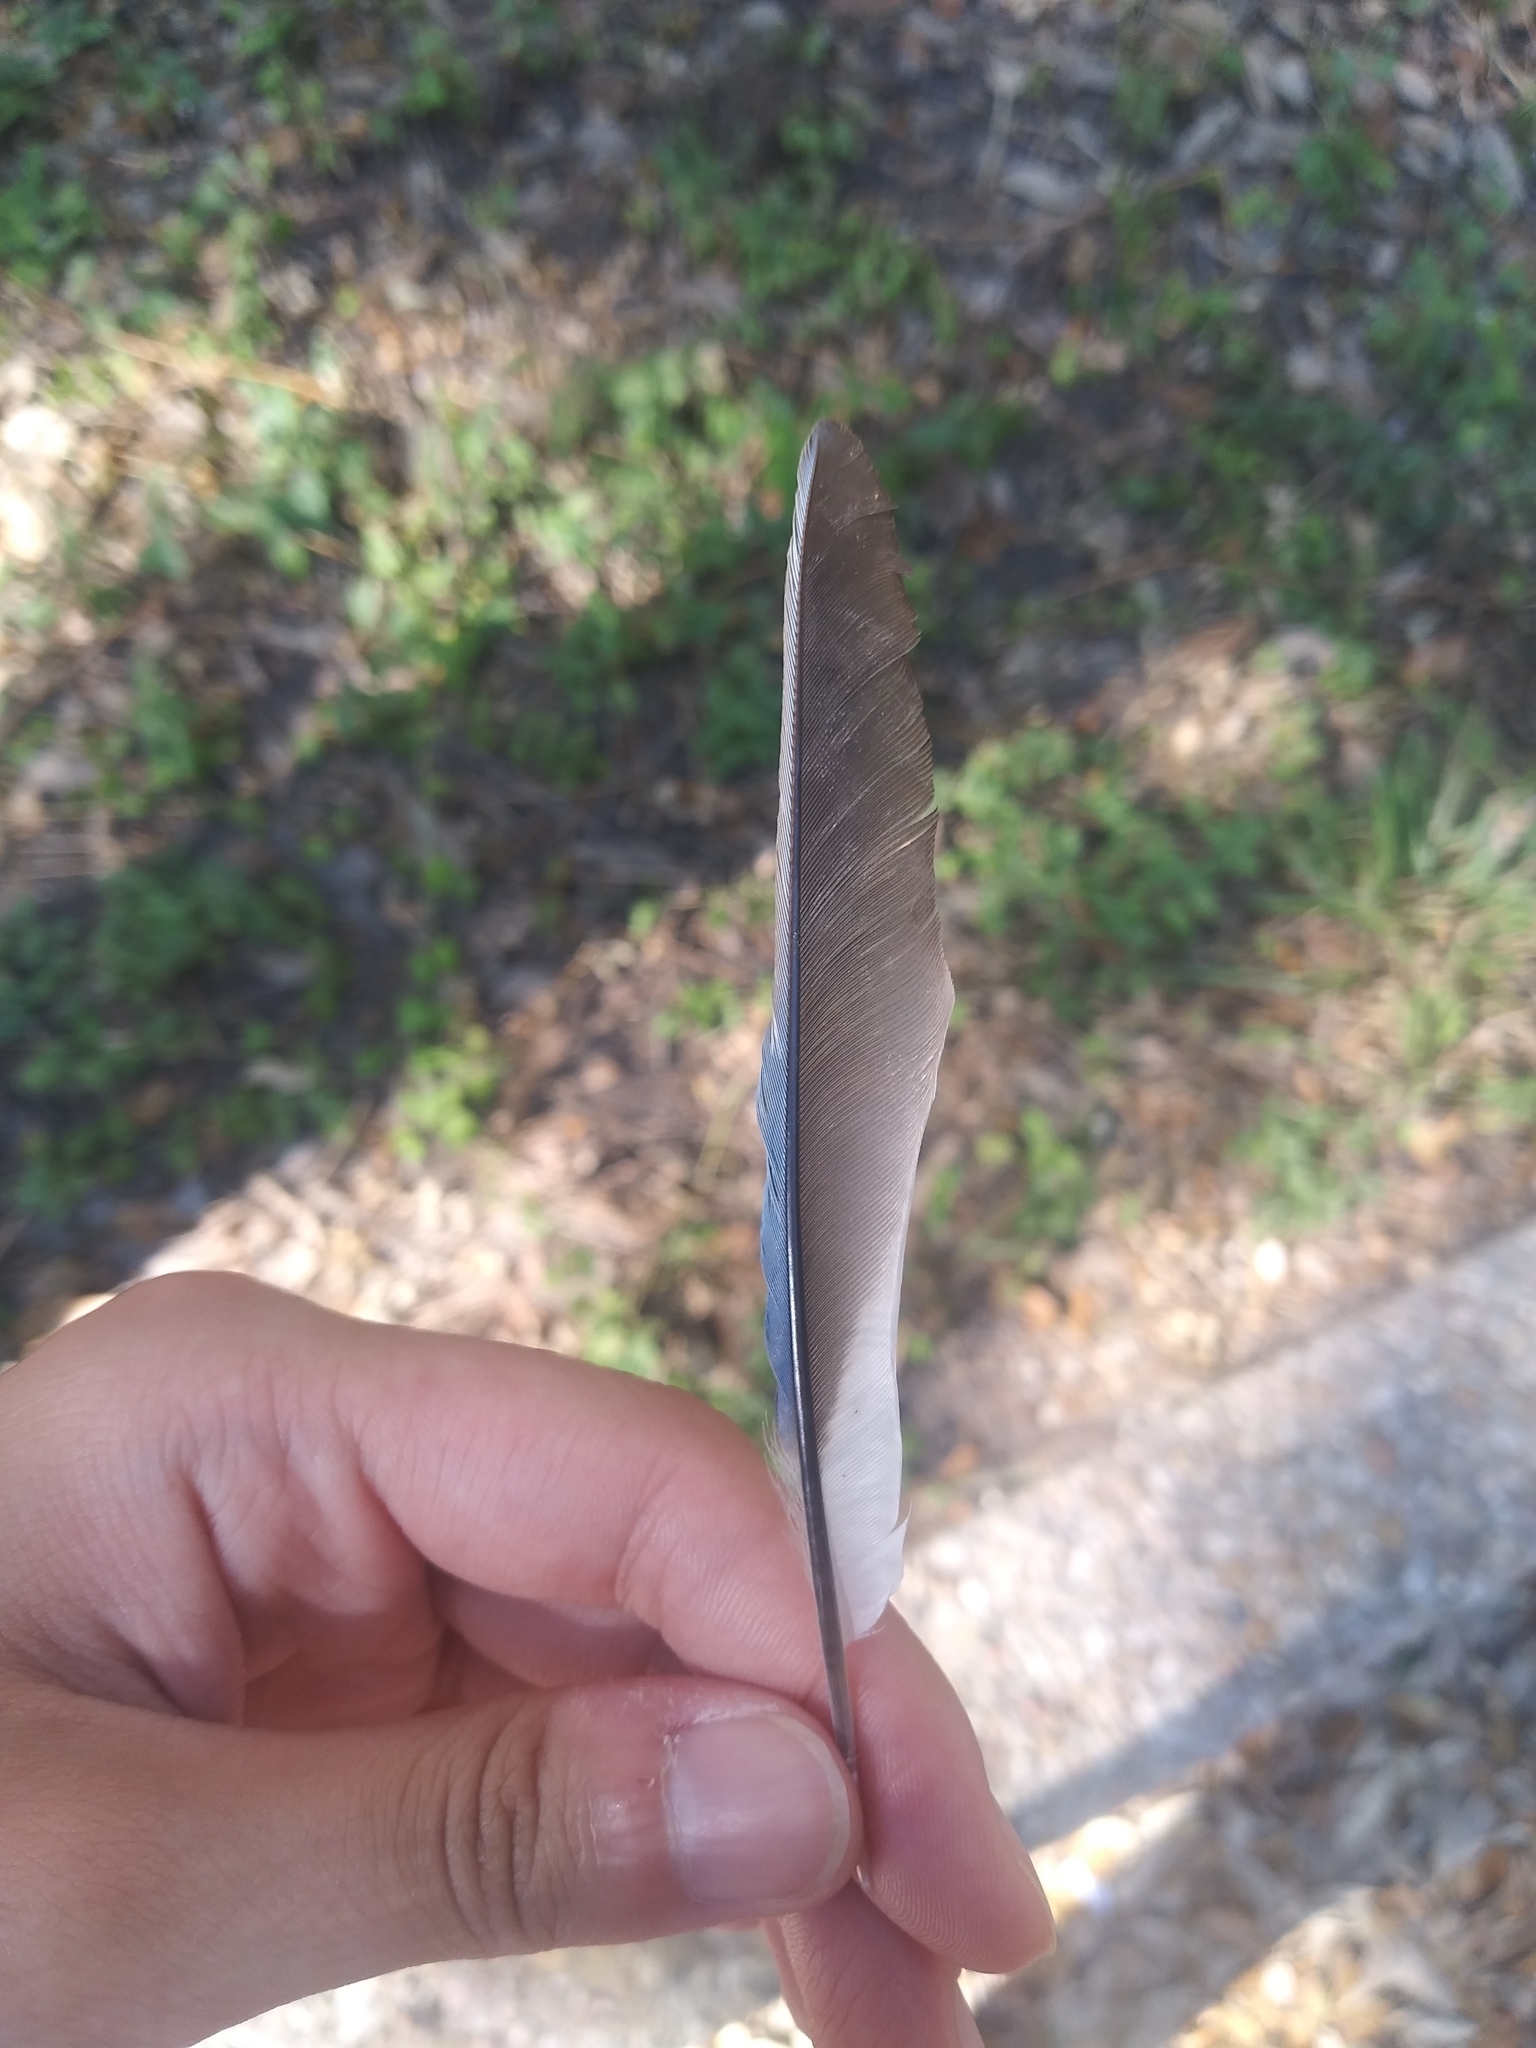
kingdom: Animalia
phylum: Chordata
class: Aves
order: Passeriformes
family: Corvidae
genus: Cyanocitta
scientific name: Cyanocitta cristata
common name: Blue jay
